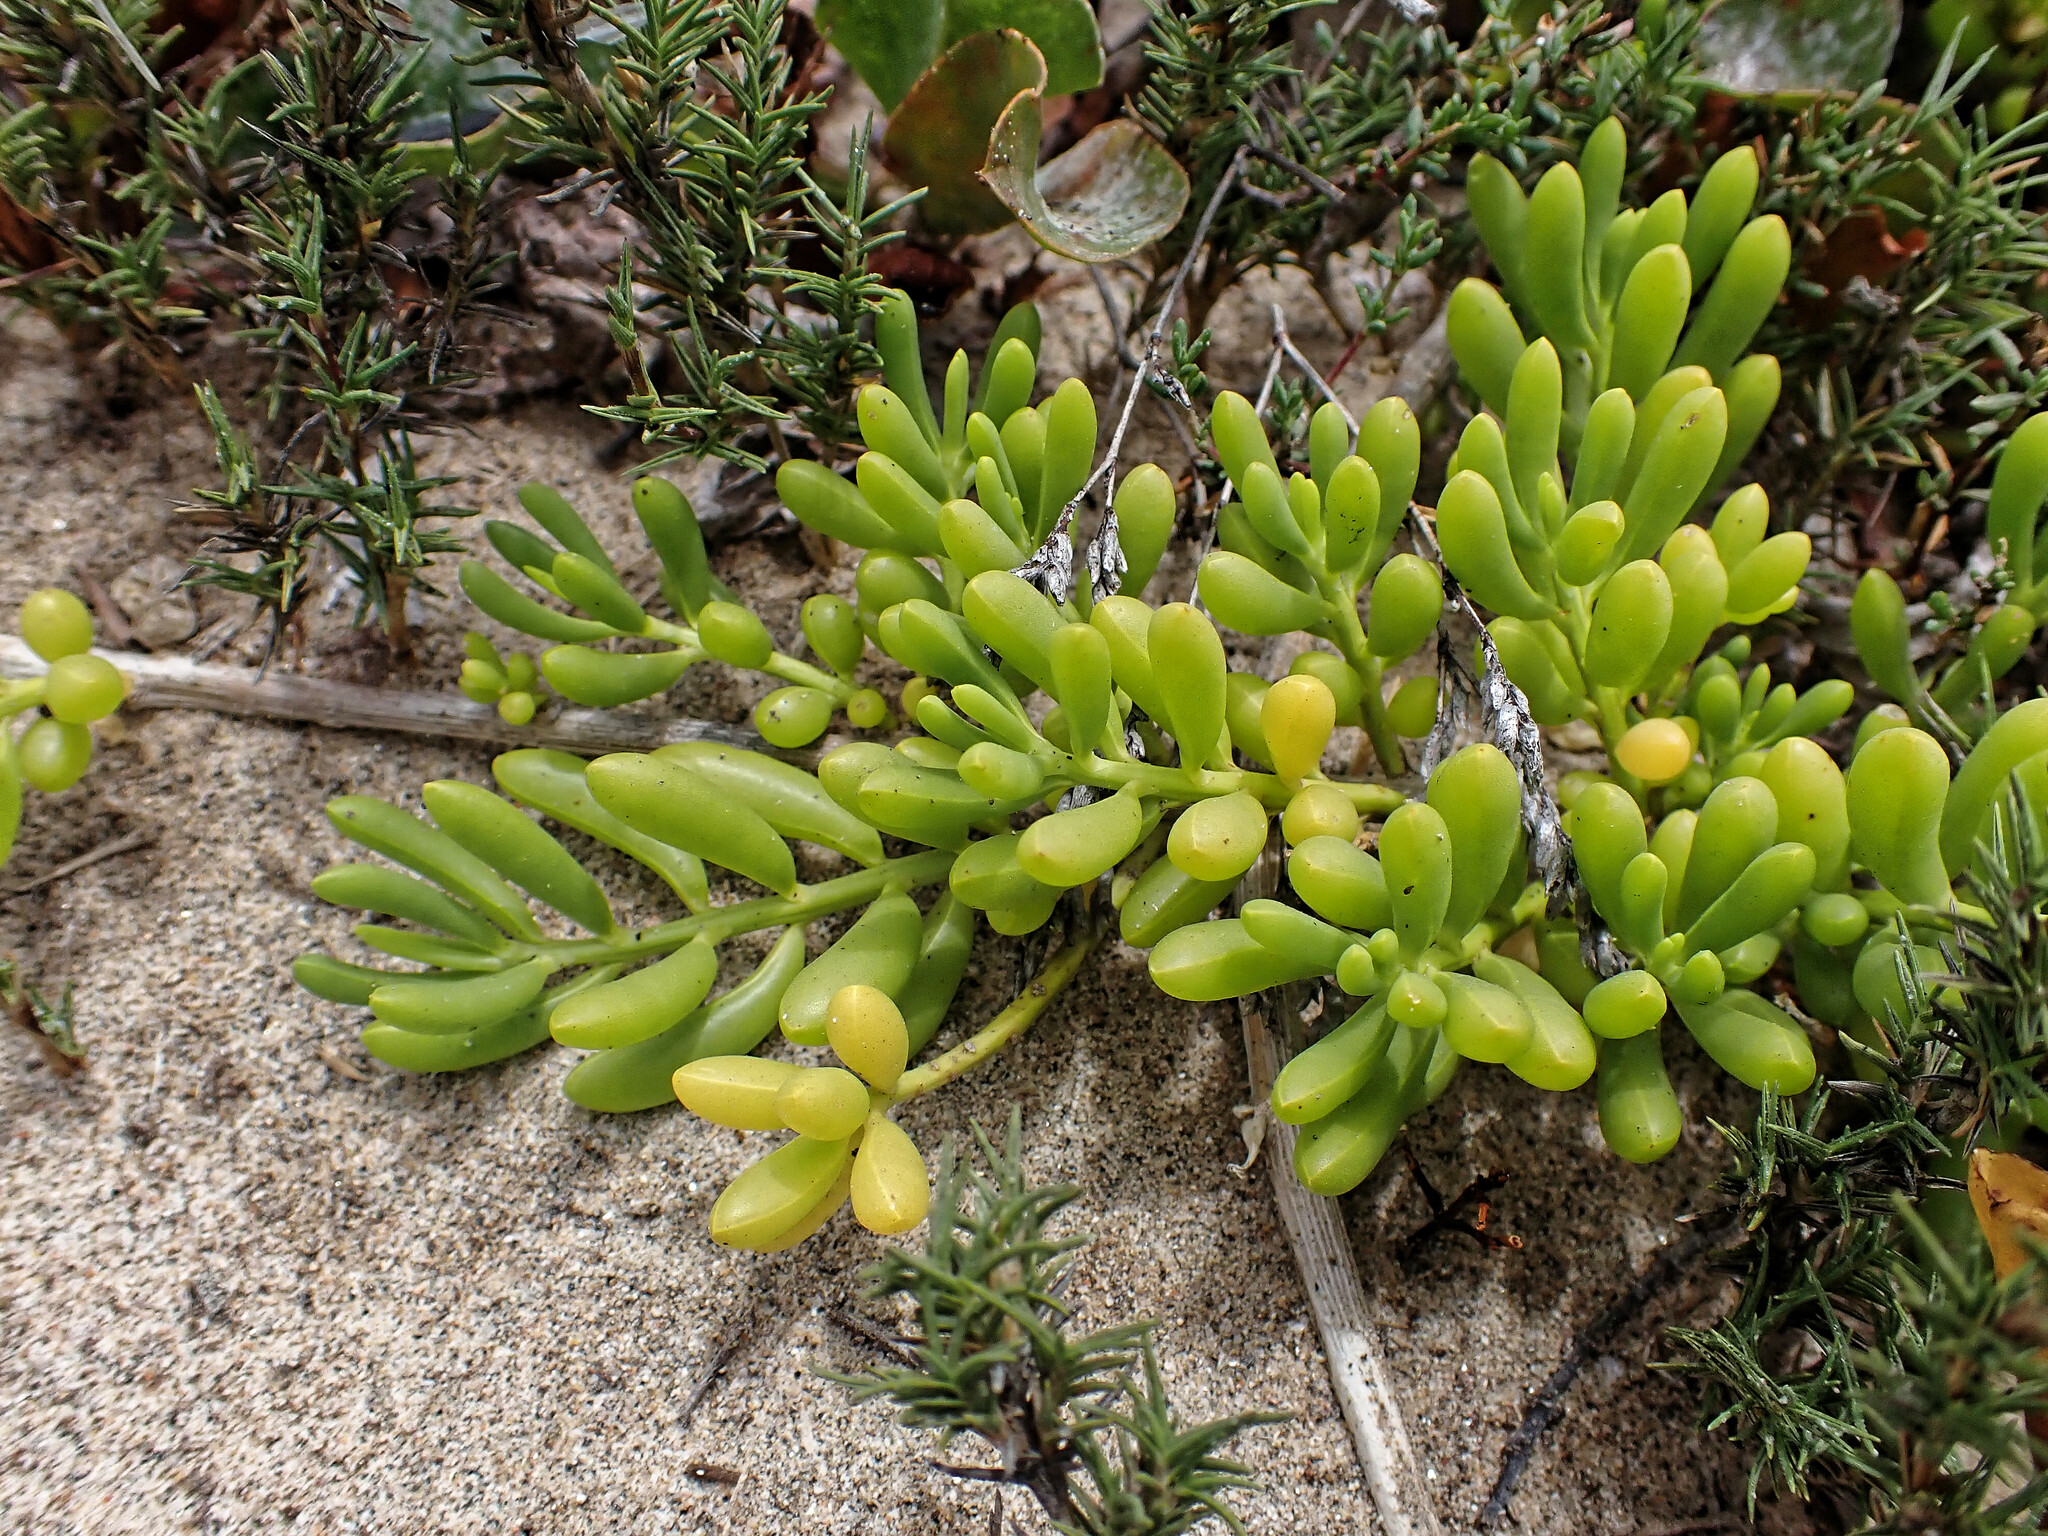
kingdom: Plantae
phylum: Tracheophyta
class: Magnoliopsida
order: Brassicales
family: Bataceae
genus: Batis
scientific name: Batis maritima
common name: Turtleweed
